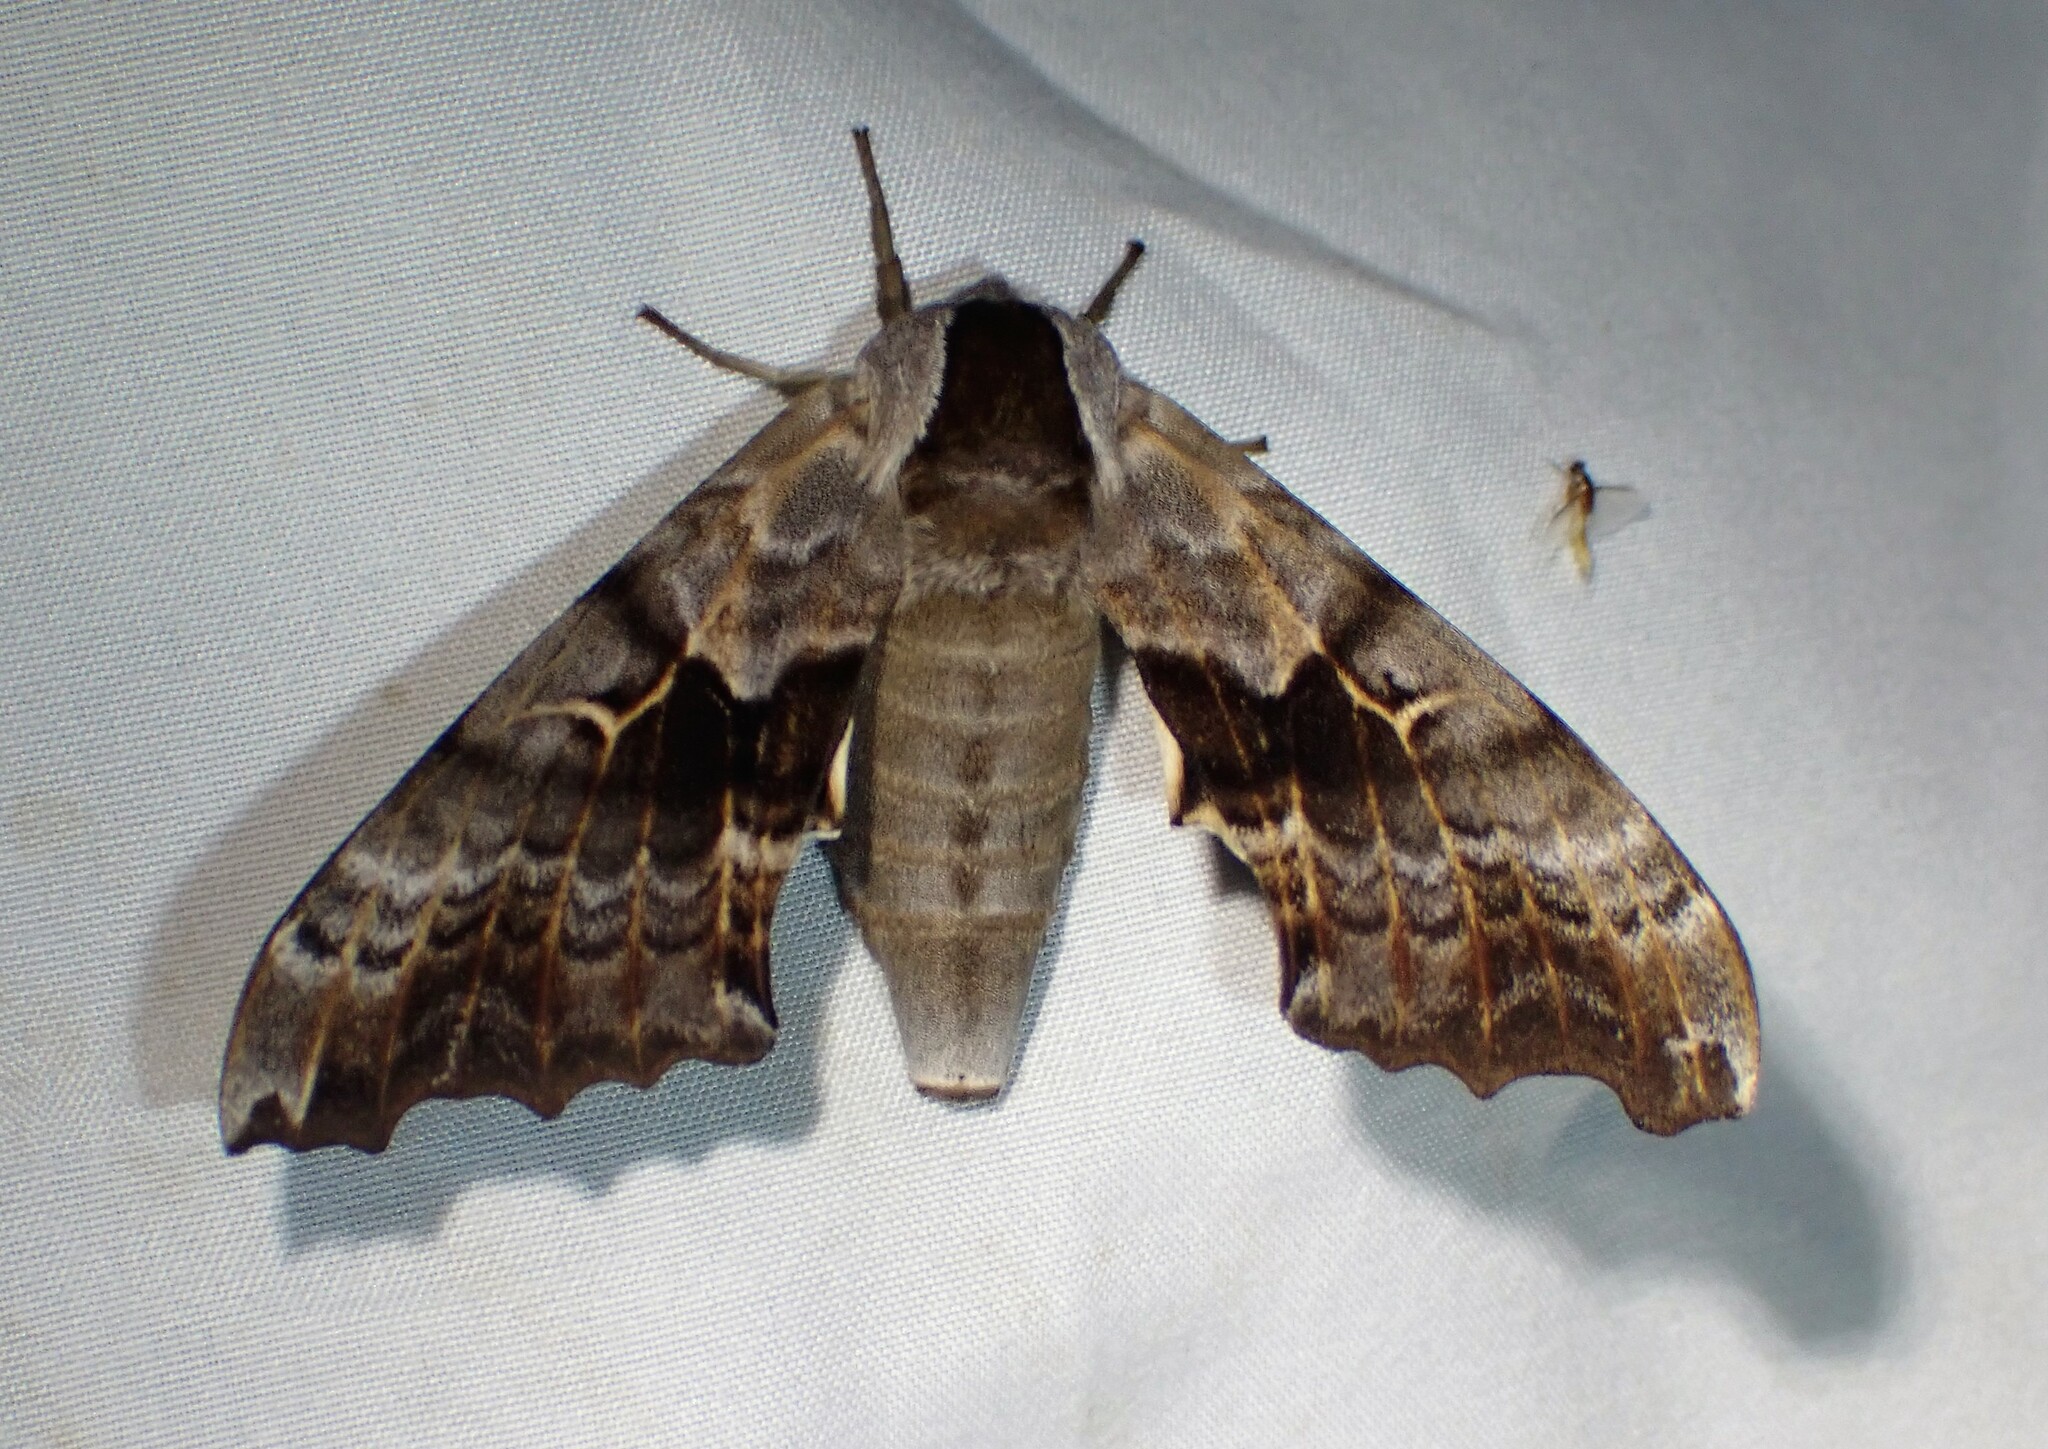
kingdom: Animalia
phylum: Arthropoda
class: Insecta
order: Lepidoptera
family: Sphingidae
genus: Smerinthus
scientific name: Smerinthus cerisyi
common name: Cerisy's sphinx moth
